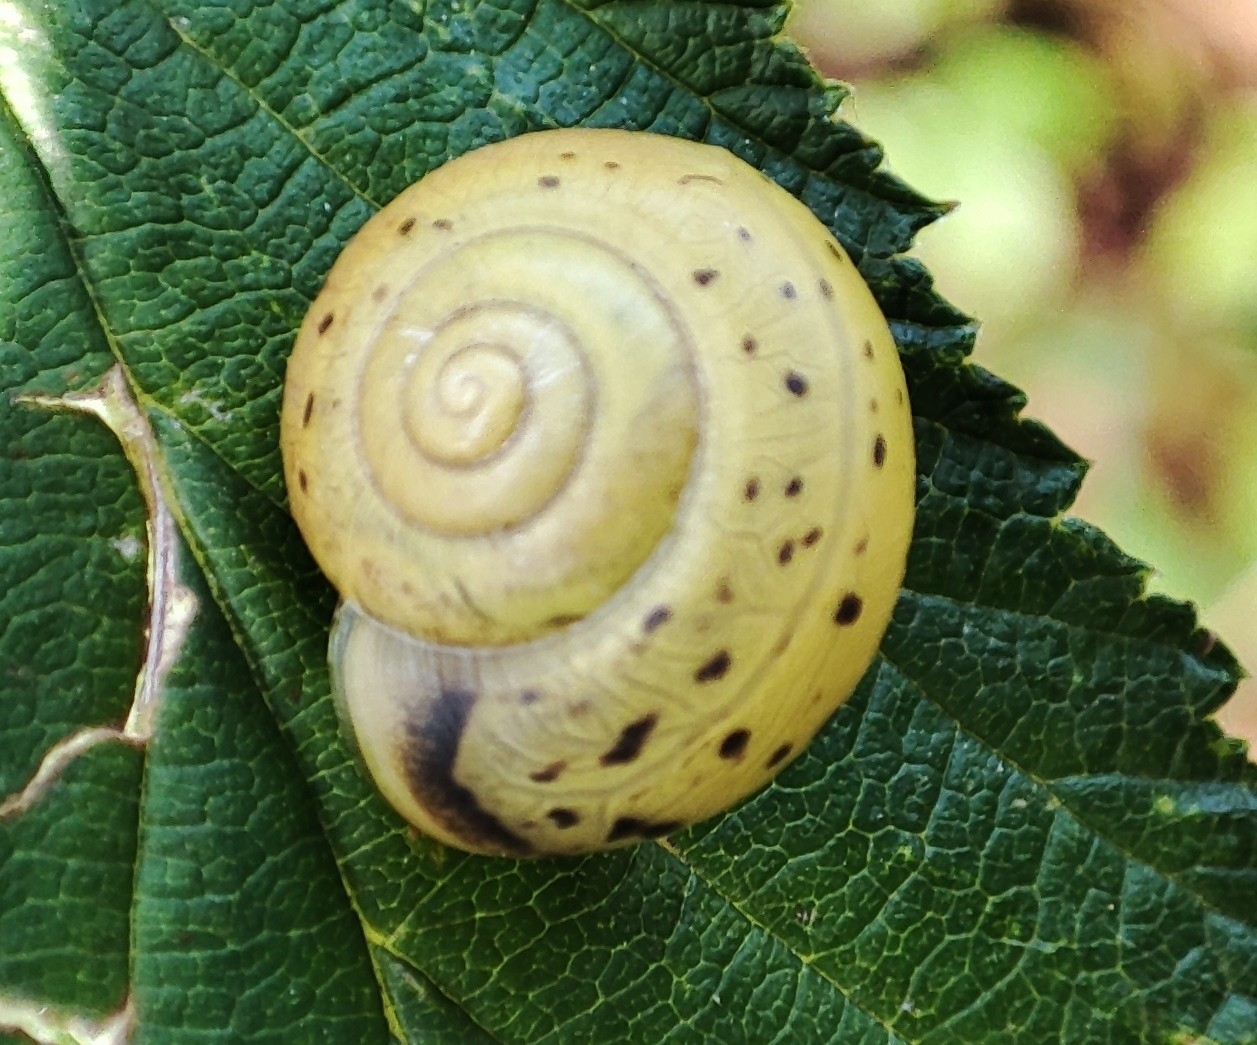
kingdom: Animalia
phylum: Mollusca
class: Gastropoda
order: Stylommatophora
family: Camaenidae
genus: Fruticicola
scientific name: Fruticicola fruticum
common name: Bush snail
